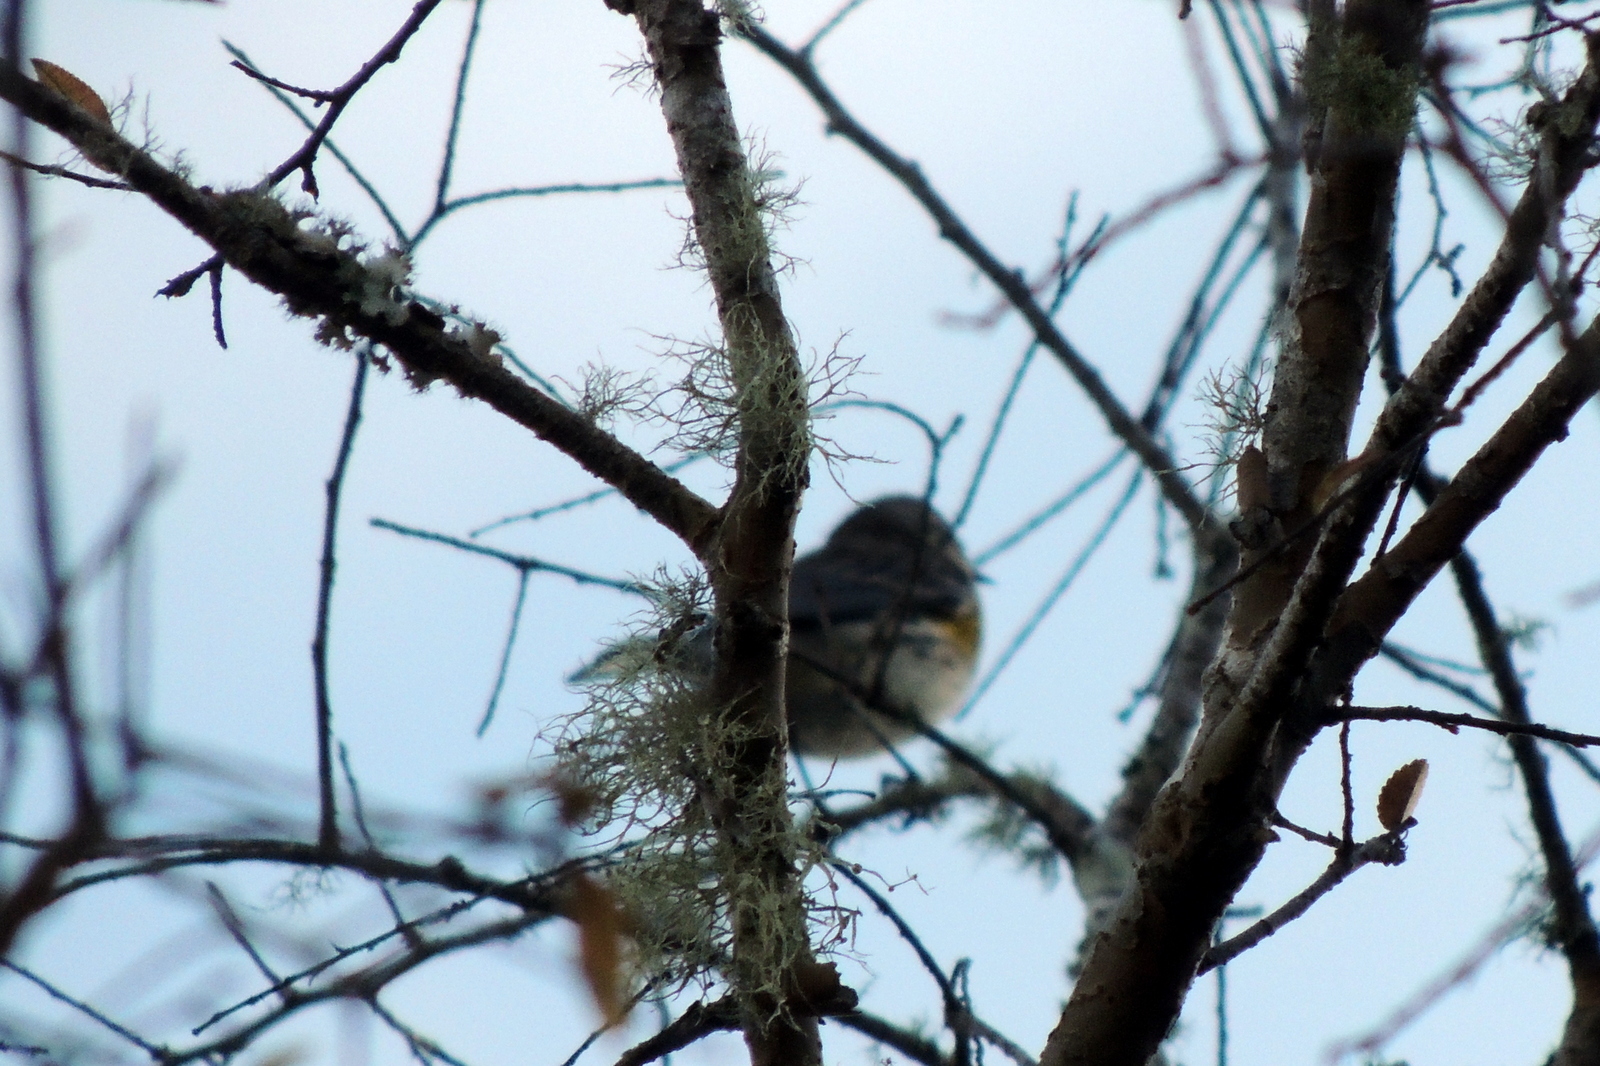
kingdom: Animalia
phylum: Chordata
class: Aves
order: Passeriformes
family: Parulidae
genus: Setophaga
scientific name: Setophaga coronata
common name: Myrtle warbler
